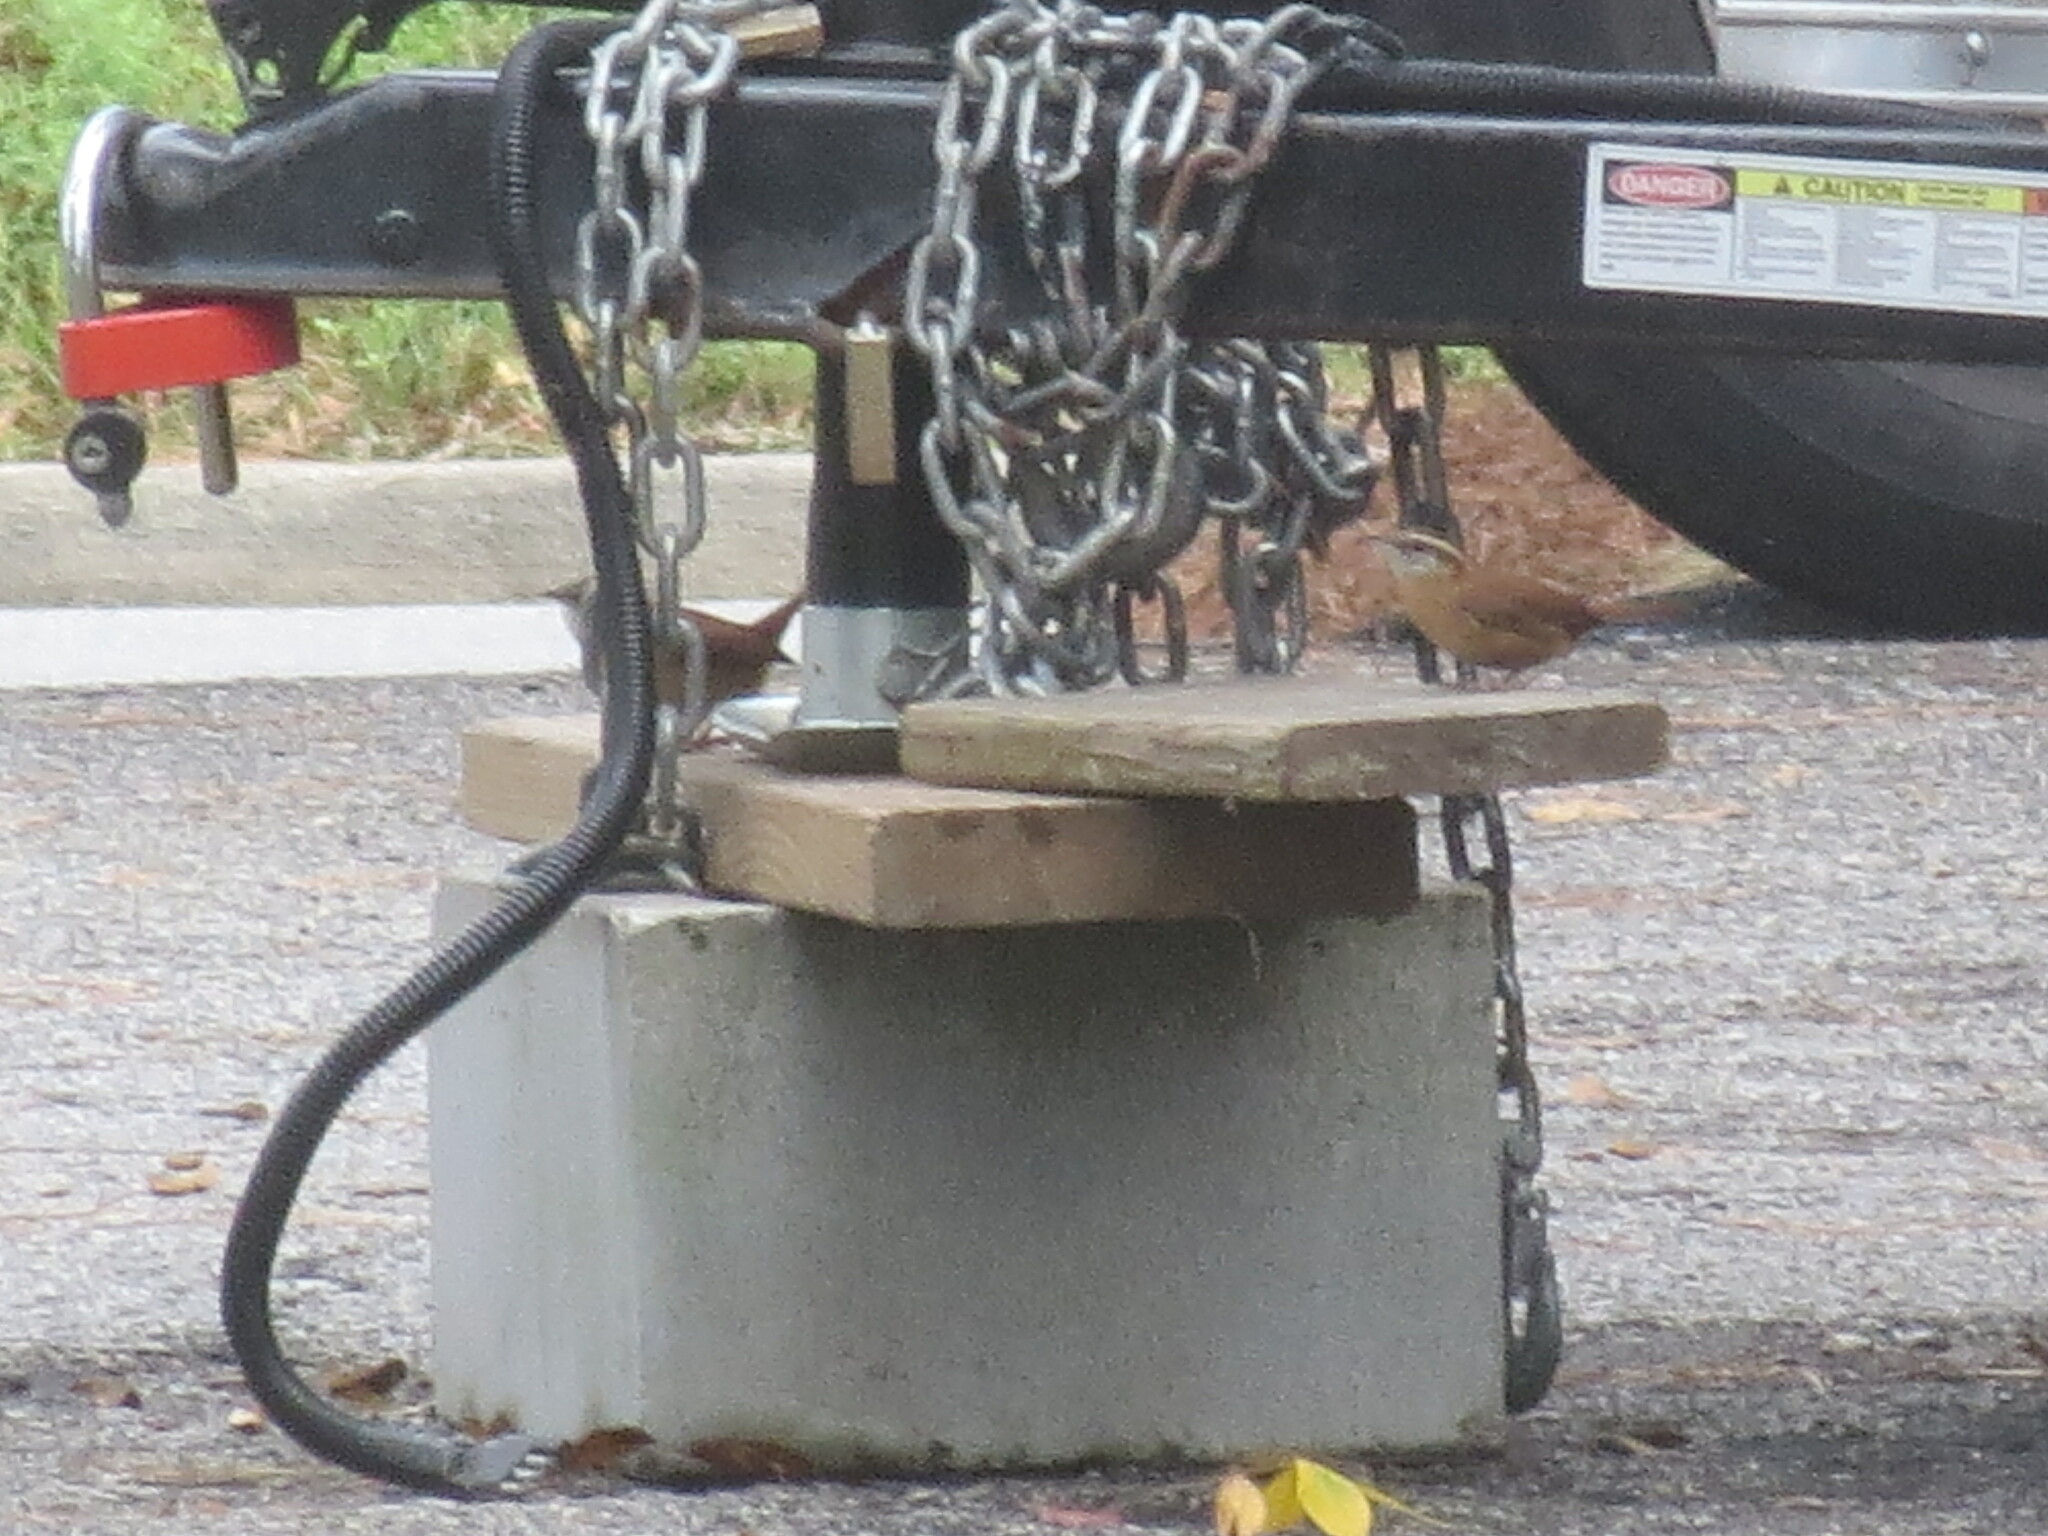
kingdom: Animalia
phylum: Chordata
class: Aves
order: Passeriformes
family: Troglodytidae
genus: Thryothorus
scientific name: Thryothorus ludovicianus
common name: Carolina wren
